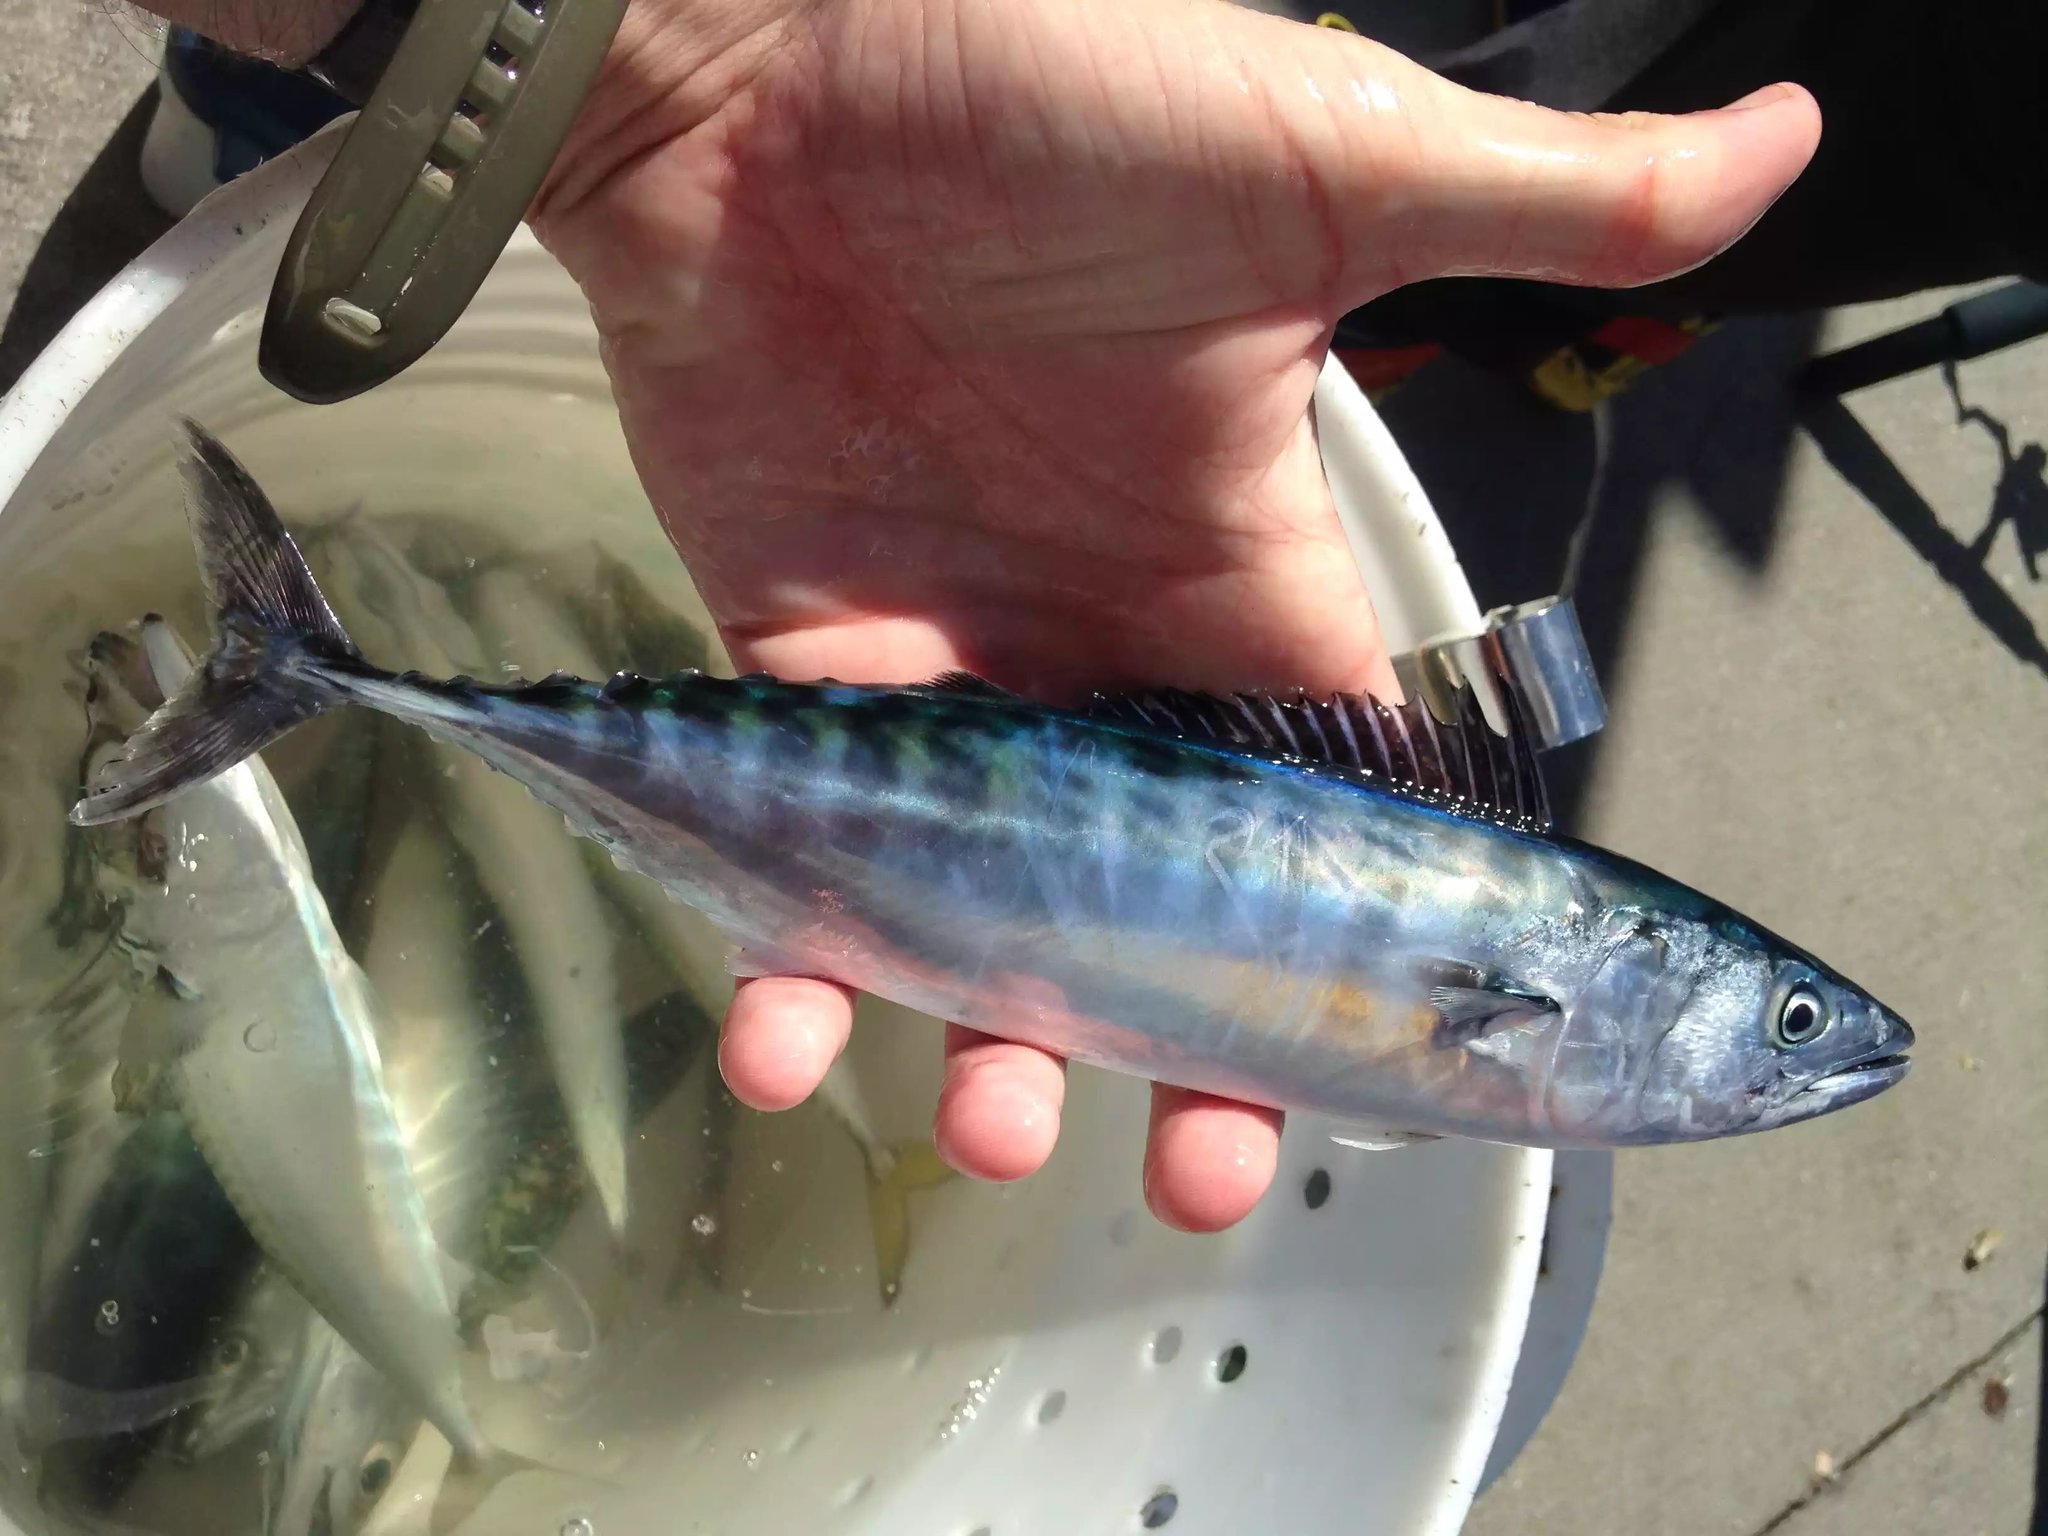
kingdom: Animalia
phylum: Chordata
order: Perciformes
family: Scombridae
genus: Sarda
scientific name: Sarda chiliensis
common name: Pacific bonito
